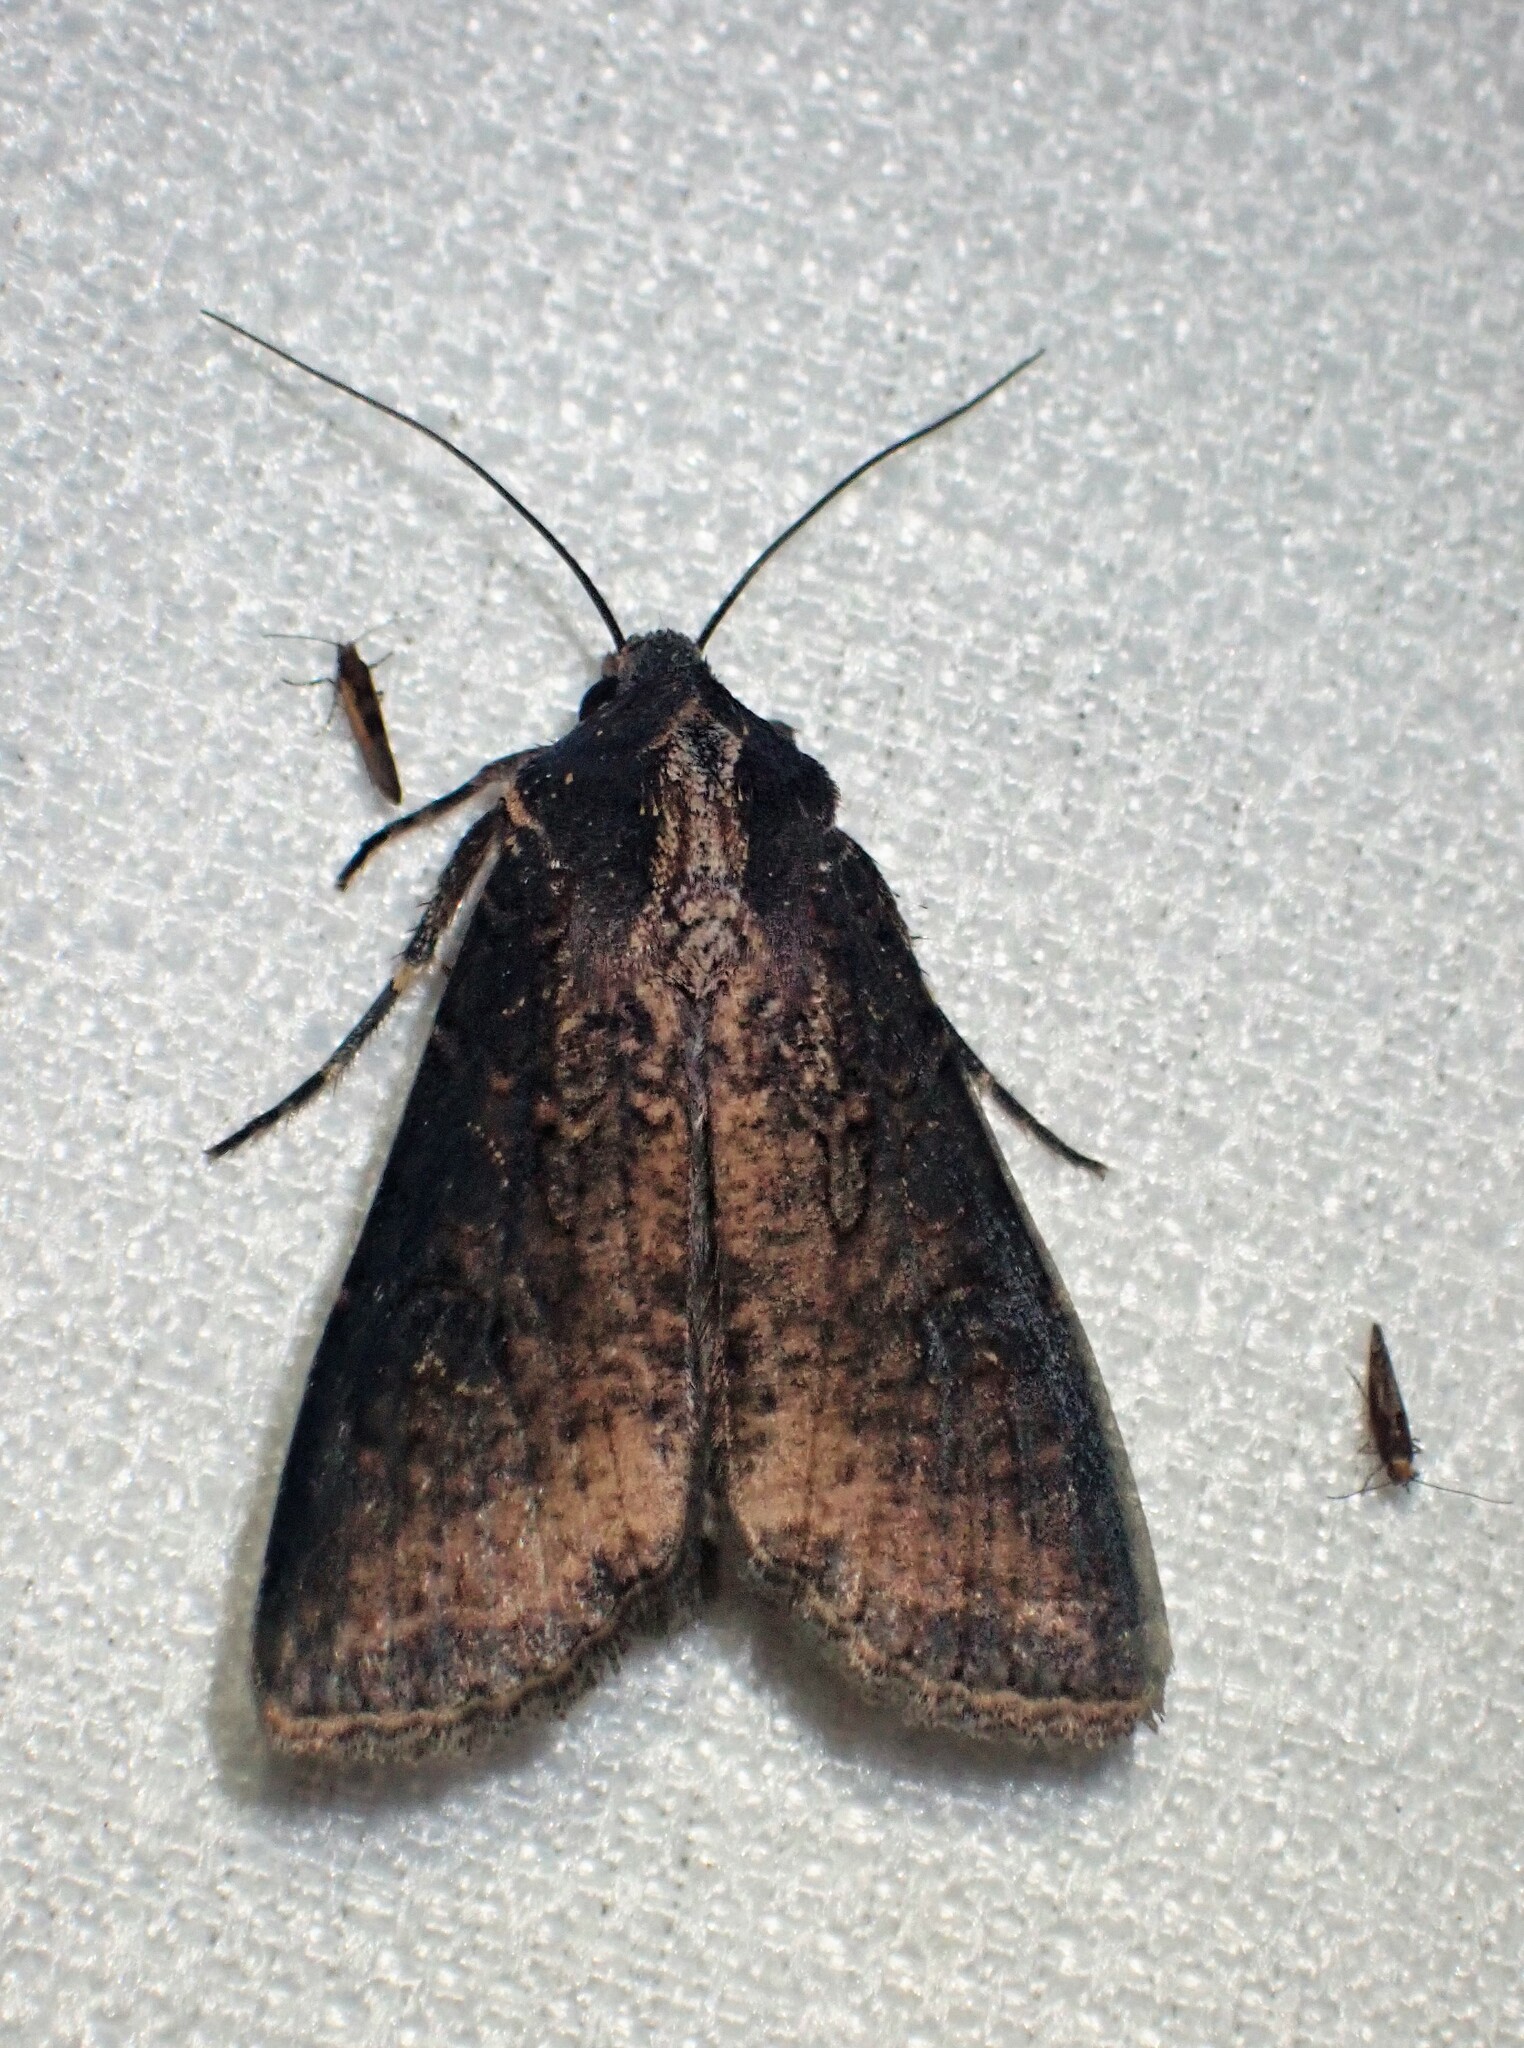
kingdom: Animalia
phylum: Arthropoda
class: Insecta
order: Lepidoptera
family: Noctuidae
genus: Peridroma
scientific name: Peridroma saucia
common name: Pearly underwing
